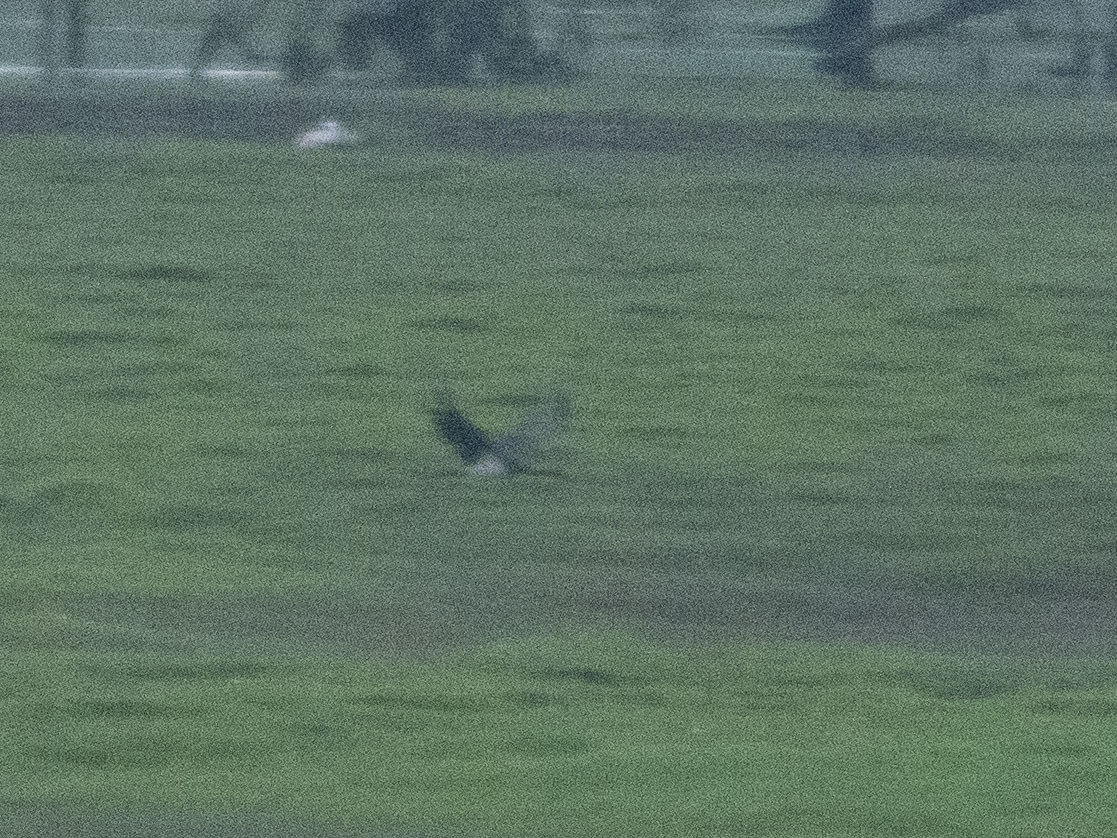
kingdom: Animalia
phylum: Chordata
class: Aves
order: Ciconiiformes
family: Ciconiidae
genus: Ciconia
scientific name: Ciconia nigra
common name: Black stork
